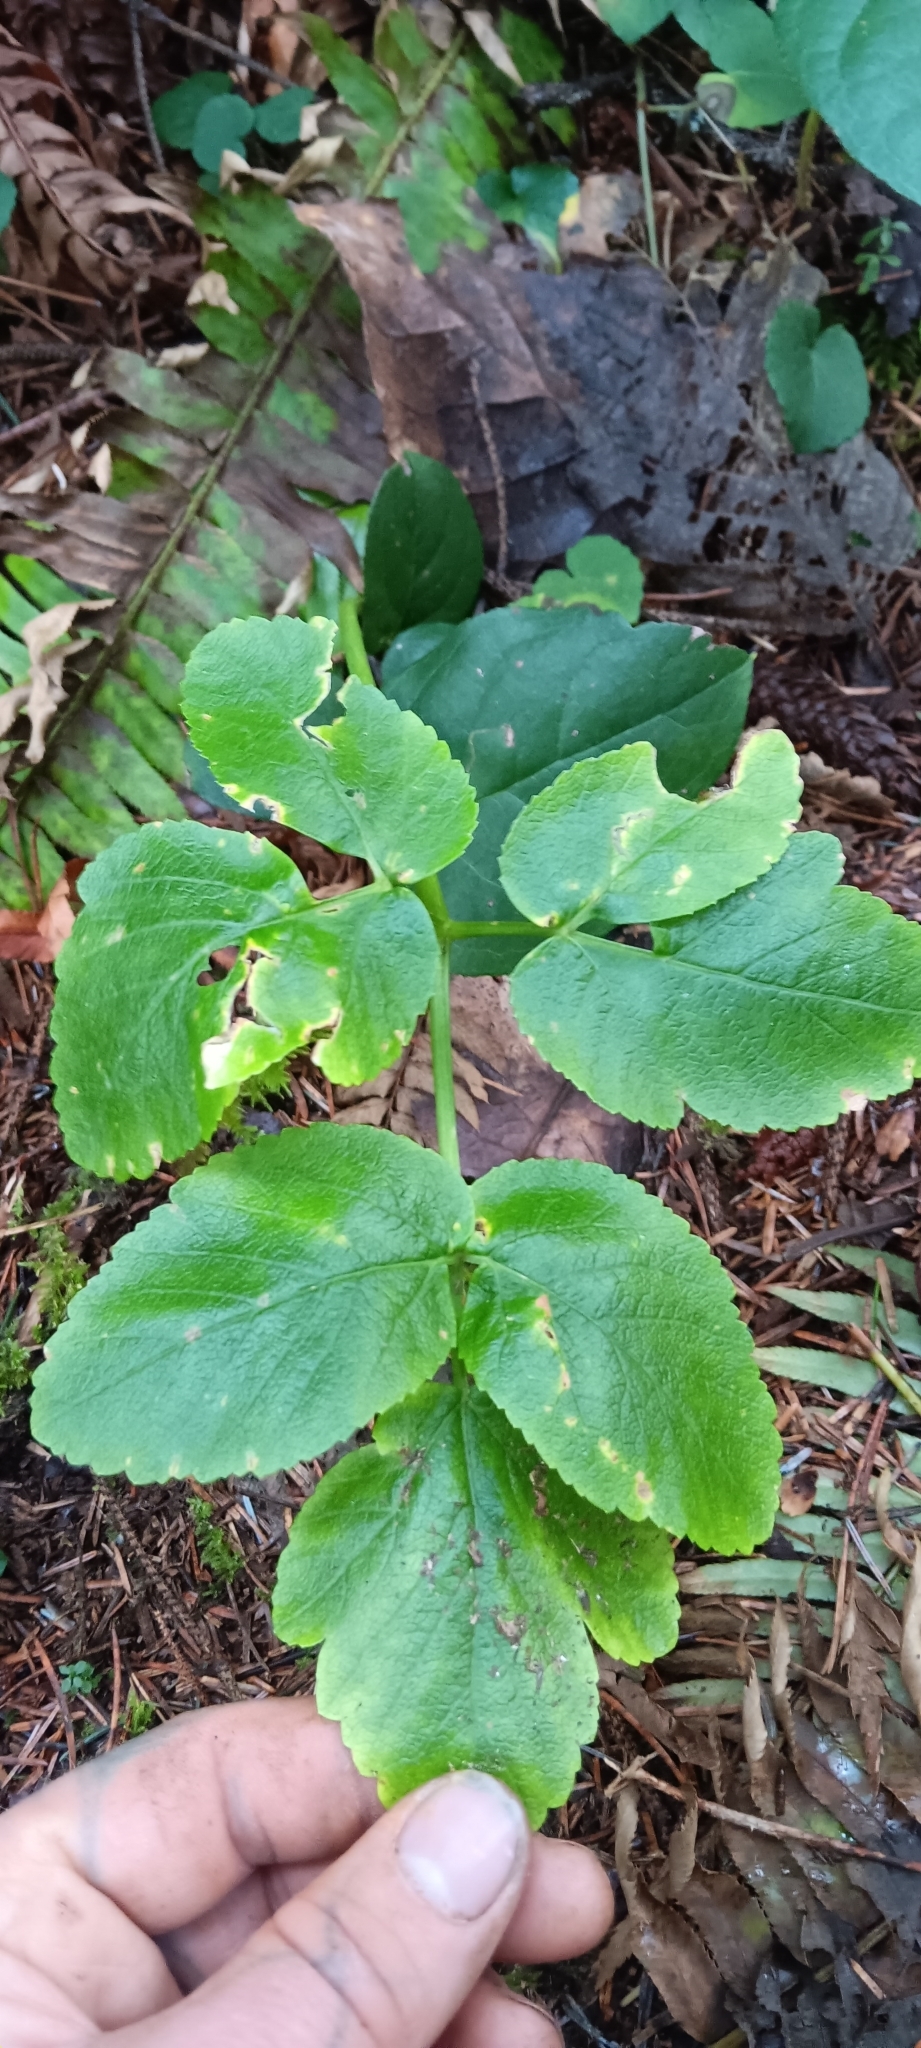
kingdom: Plantae
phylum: Tracheophyta
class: Magnoliopsida
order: Apiales
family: Apiaceae
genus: Angelica
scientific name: Angelica lucida
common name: Seabeach angelica
